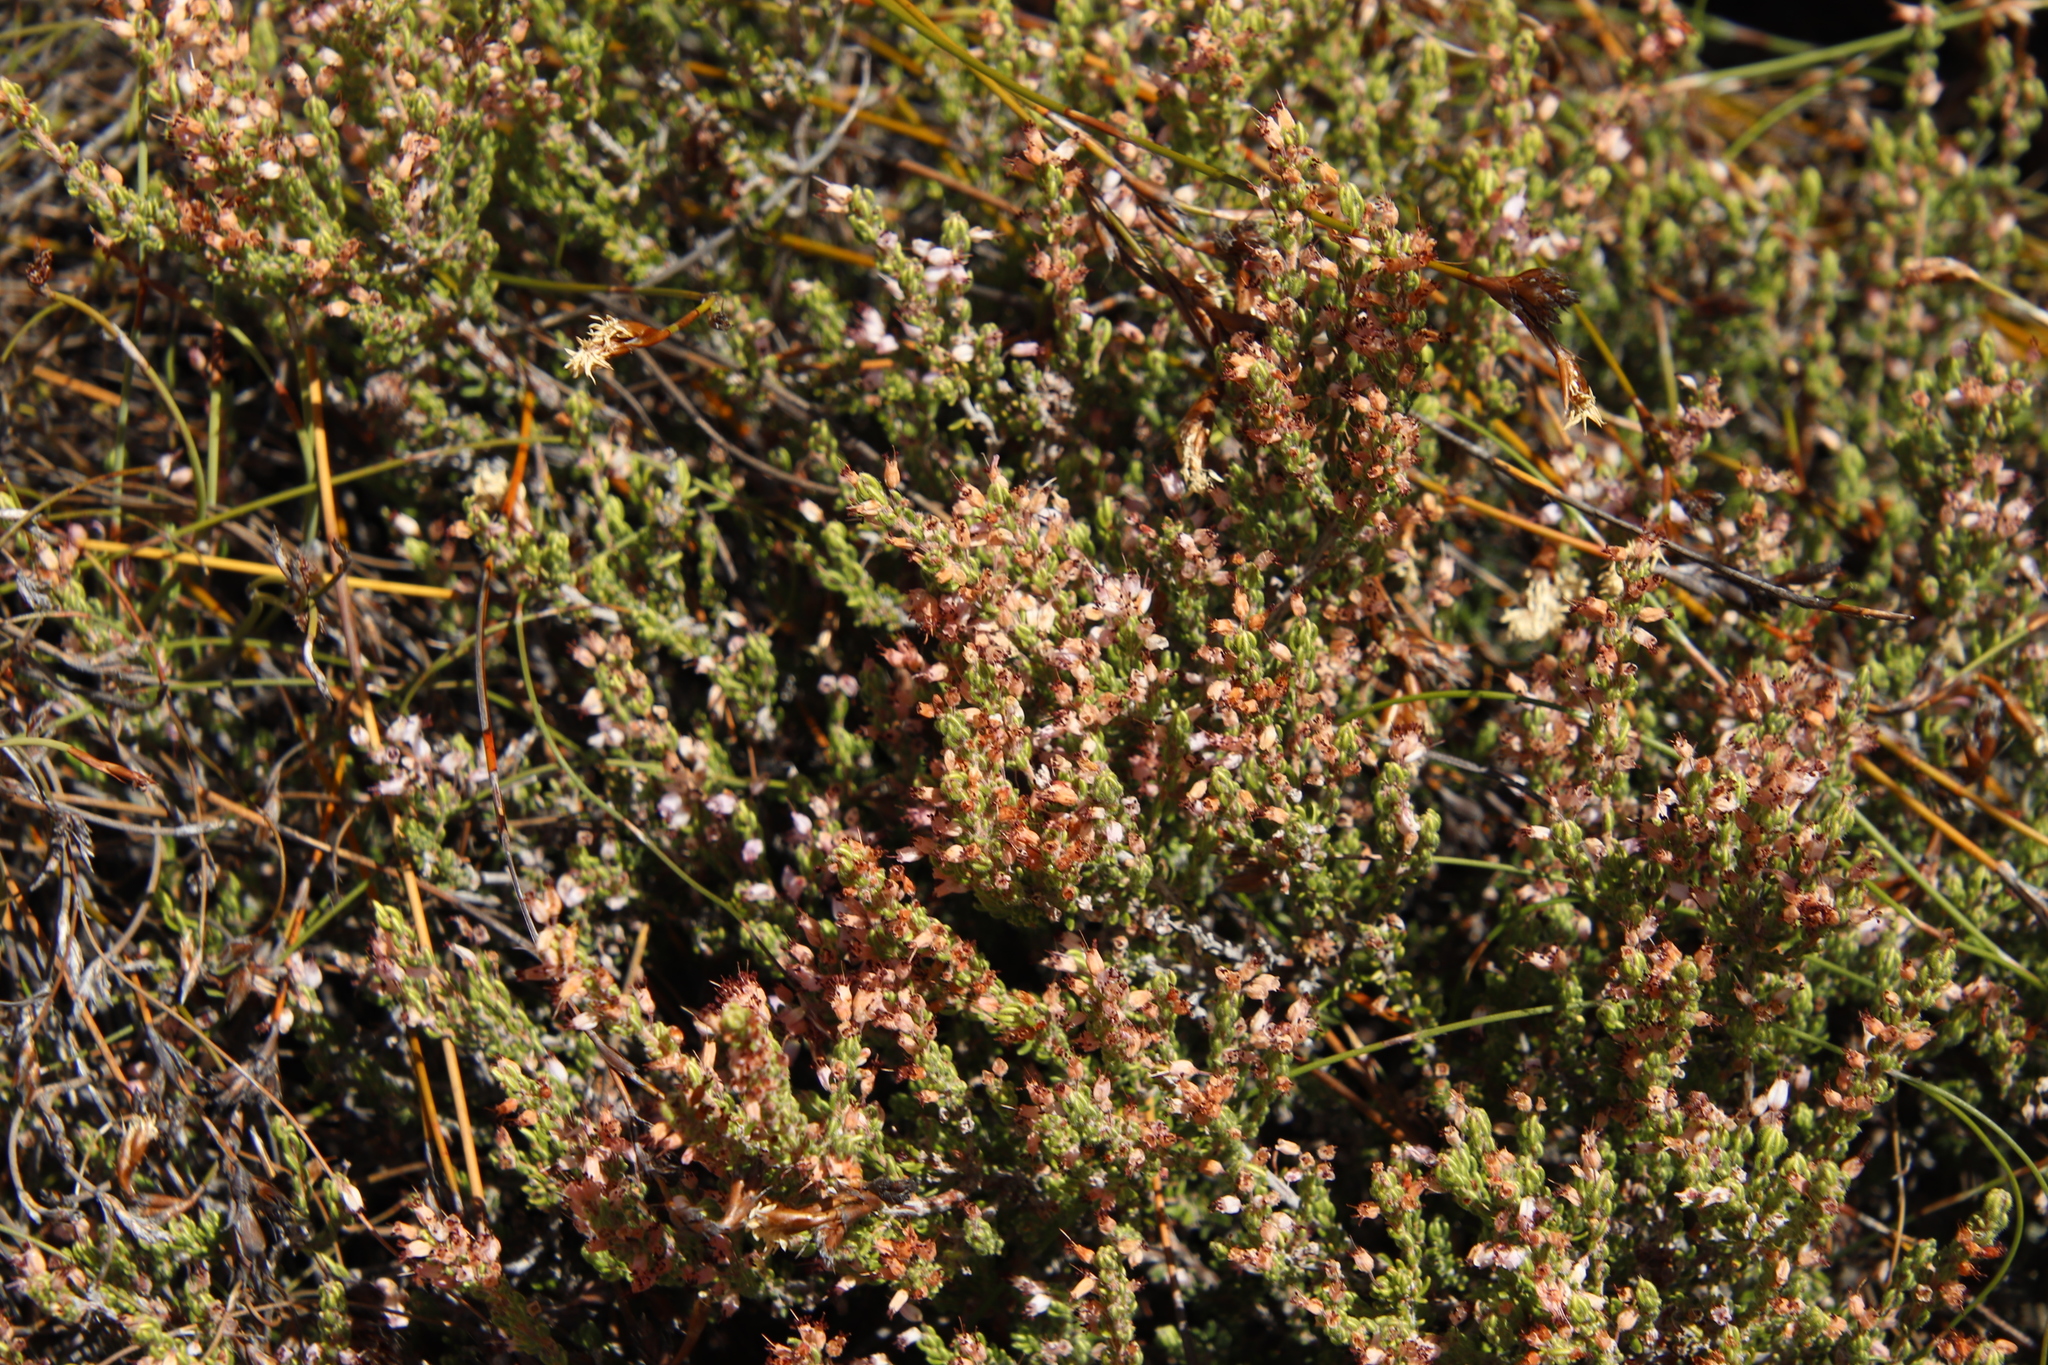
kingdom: Plantae
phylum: Tracheophyta
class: Magnoliopsida
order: Ericales
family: Ericaceae
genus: Erica
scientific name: Erica nudiflora
